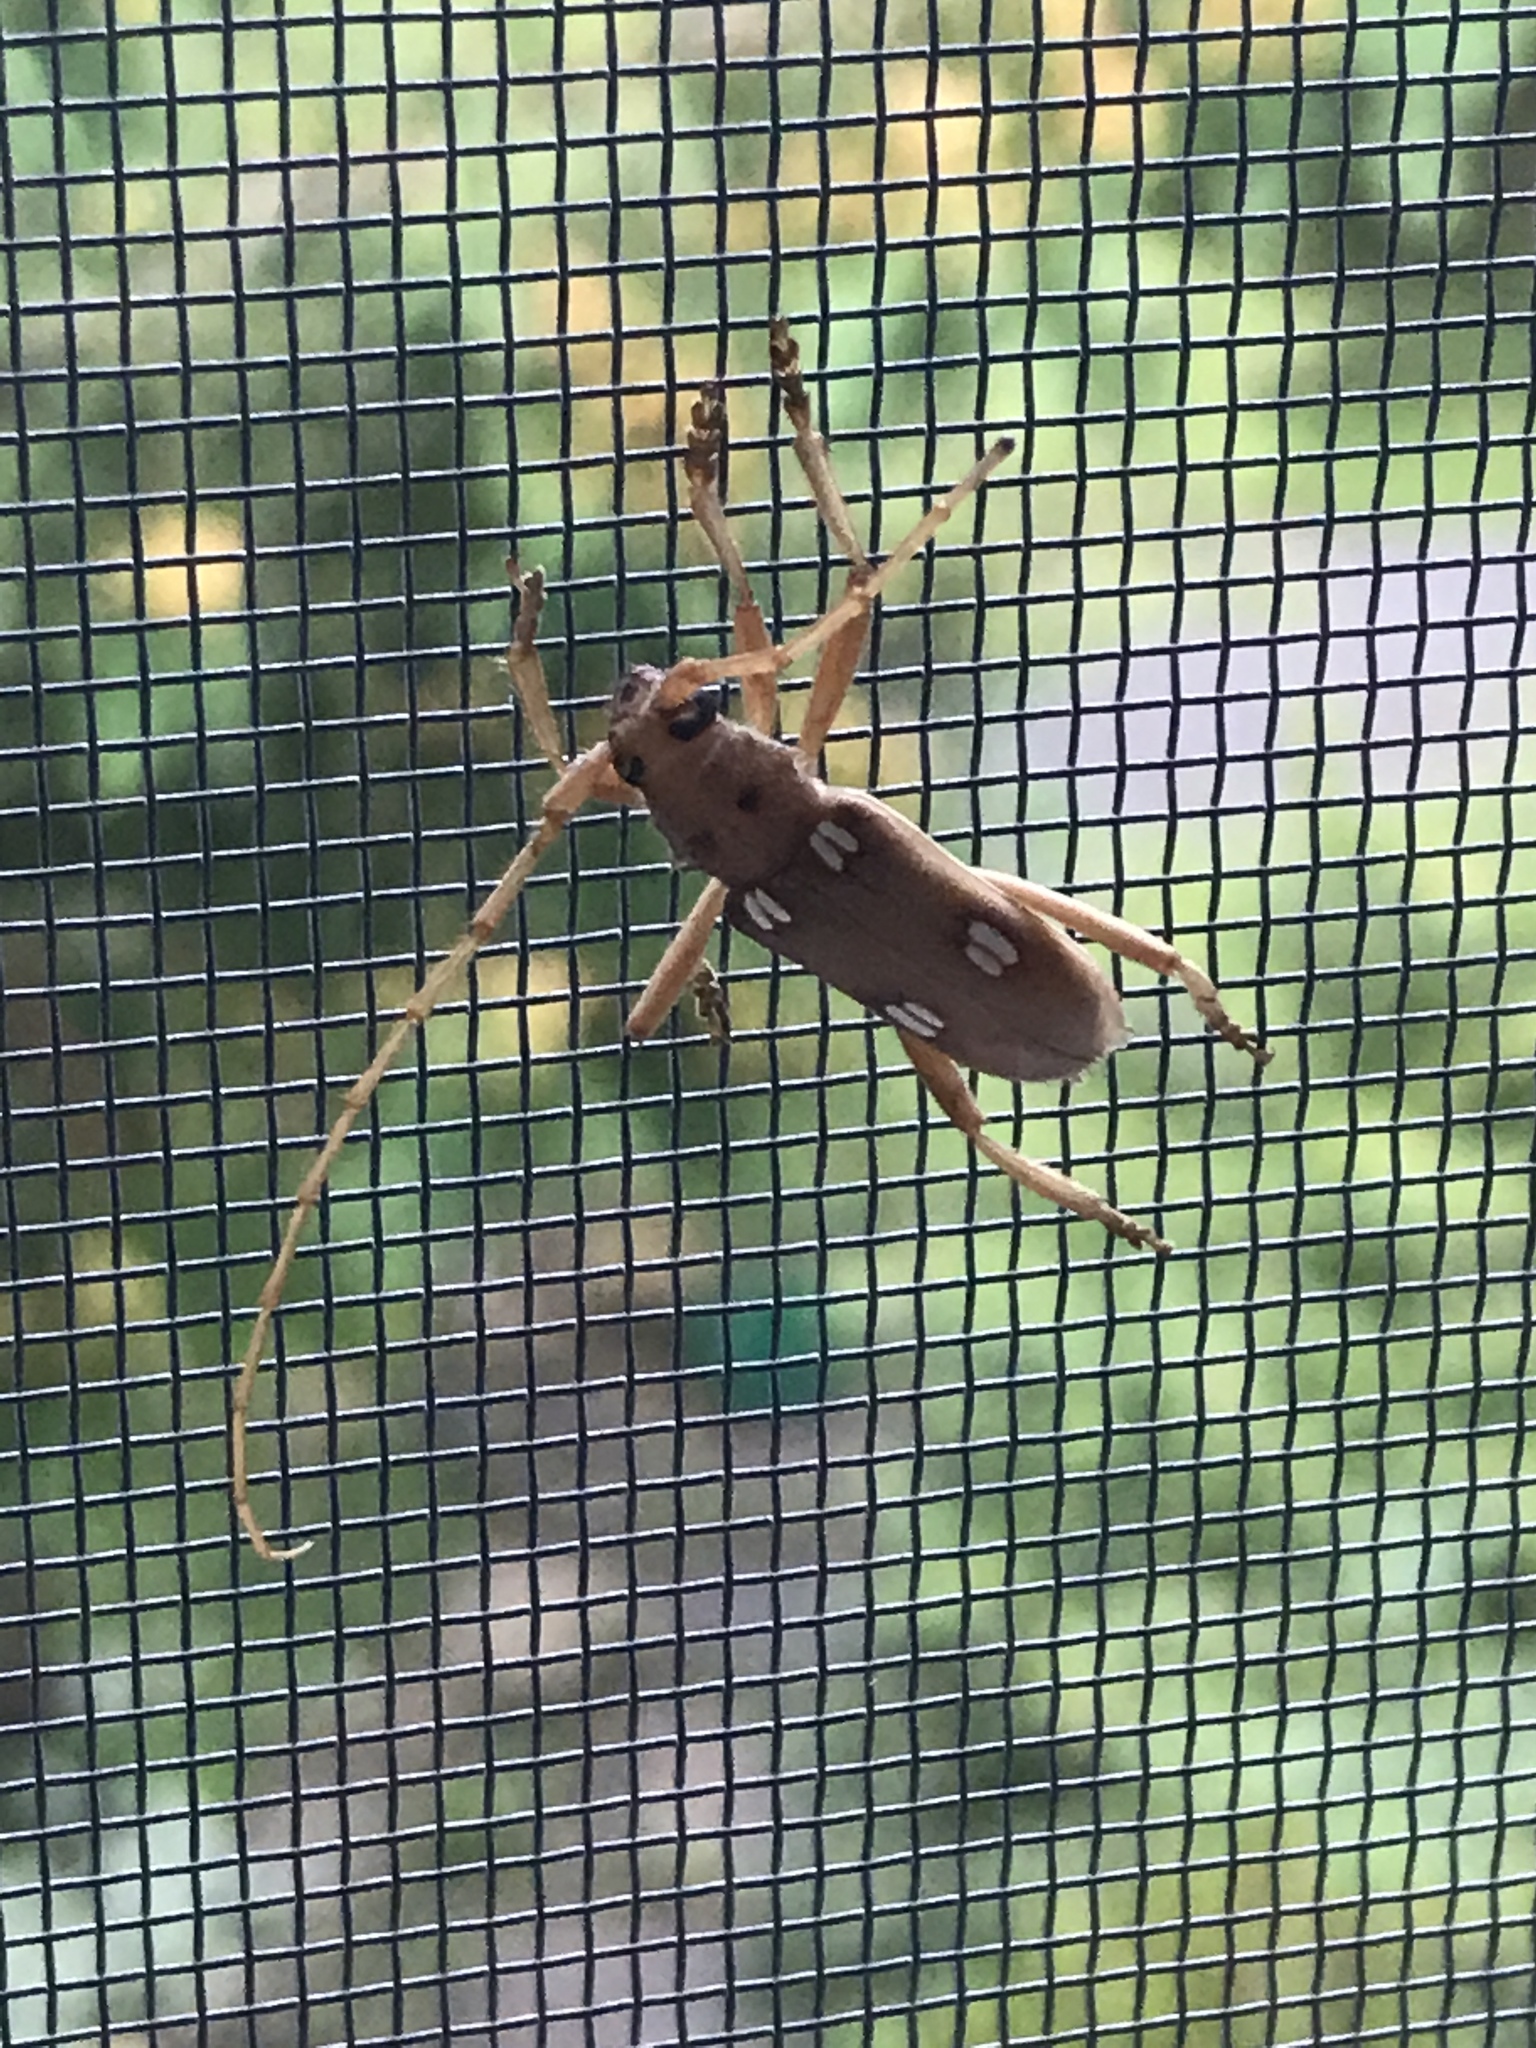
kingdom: Animalia
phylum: Arthropoda
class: Insecta
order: Coleoptera
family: Cerambycidae
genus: Eburia
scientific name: Eburia quadrigeminata
